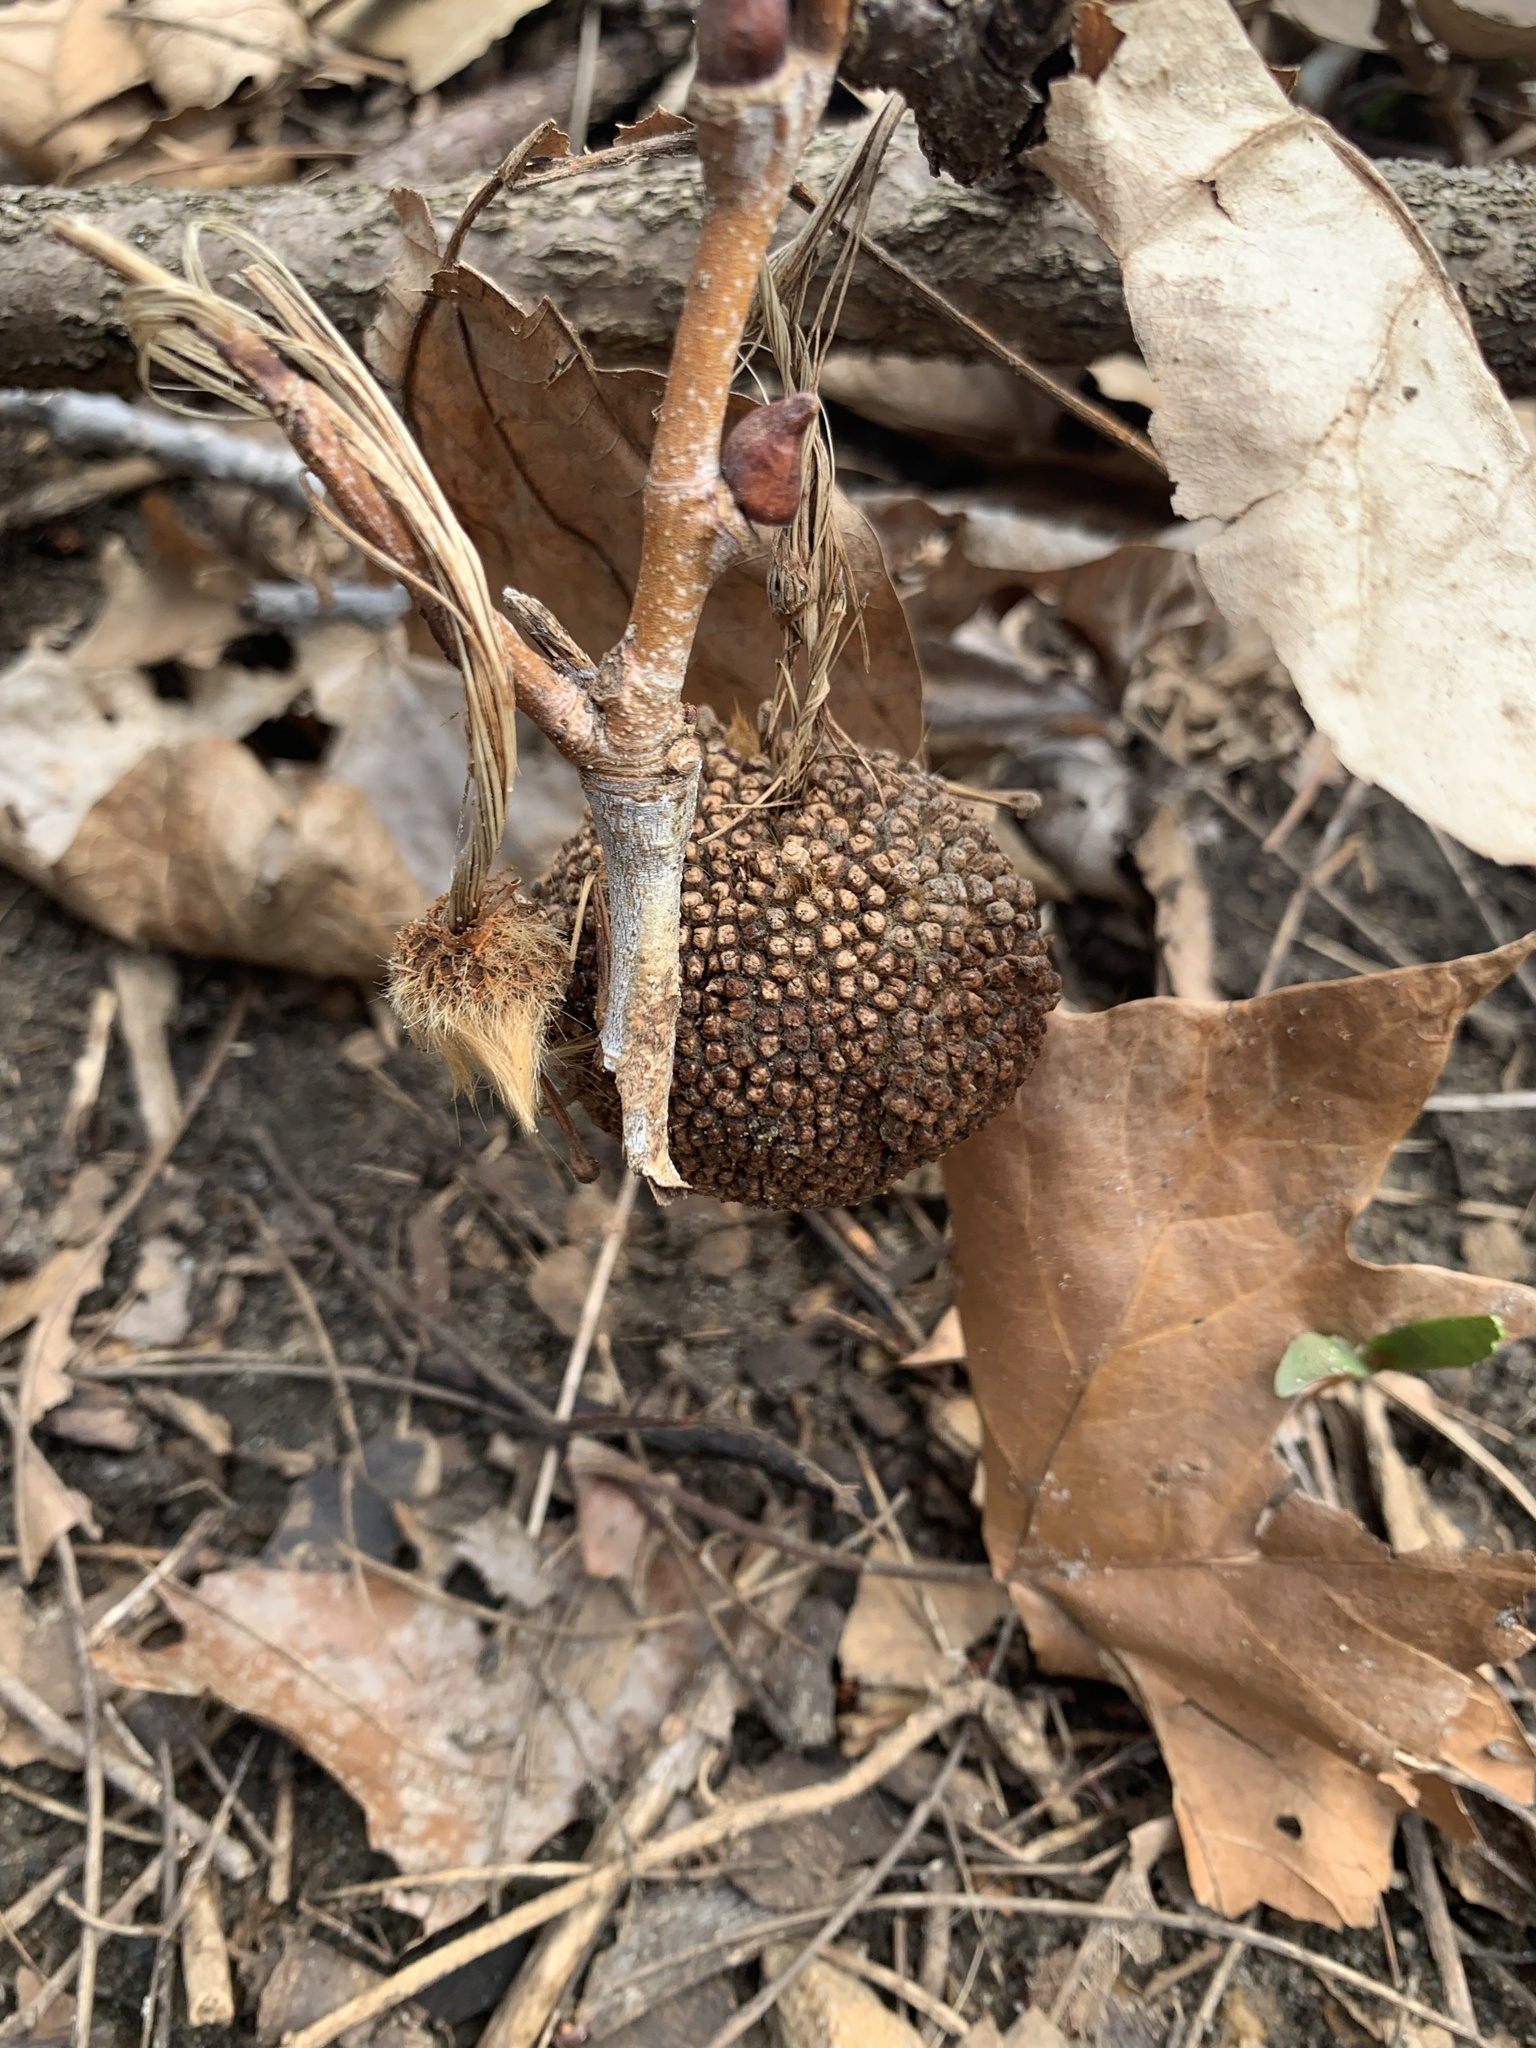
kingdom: Plantae
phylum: Tracheophyta
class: Magnoliopsida
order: Proteales
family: Platanaceae
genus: Platanus
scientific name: Platanus occidentalis
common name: American sycamore
